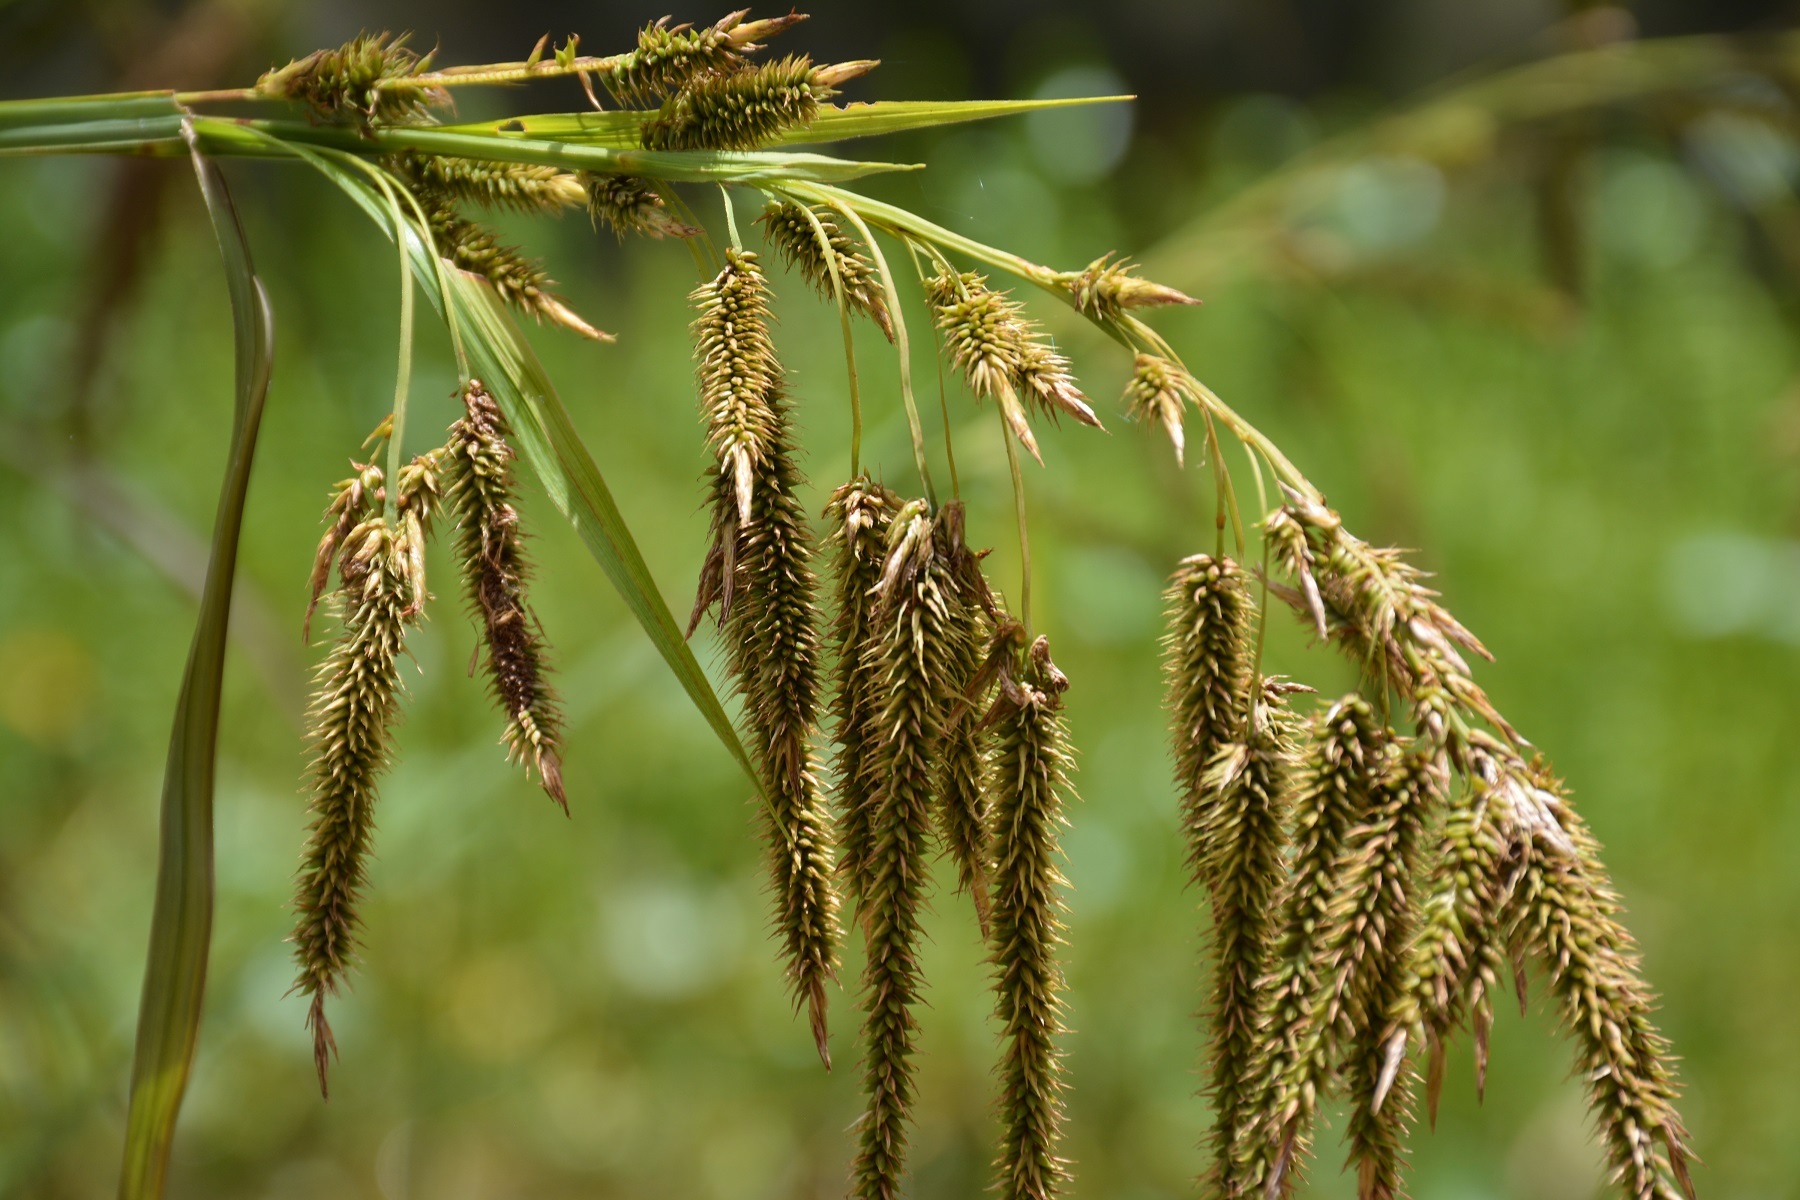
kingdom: Plantae
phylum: Tracheophyta
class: Liliopsida
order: Poales
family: Cyperaceae
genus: Carex
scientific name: Carex chordalis
